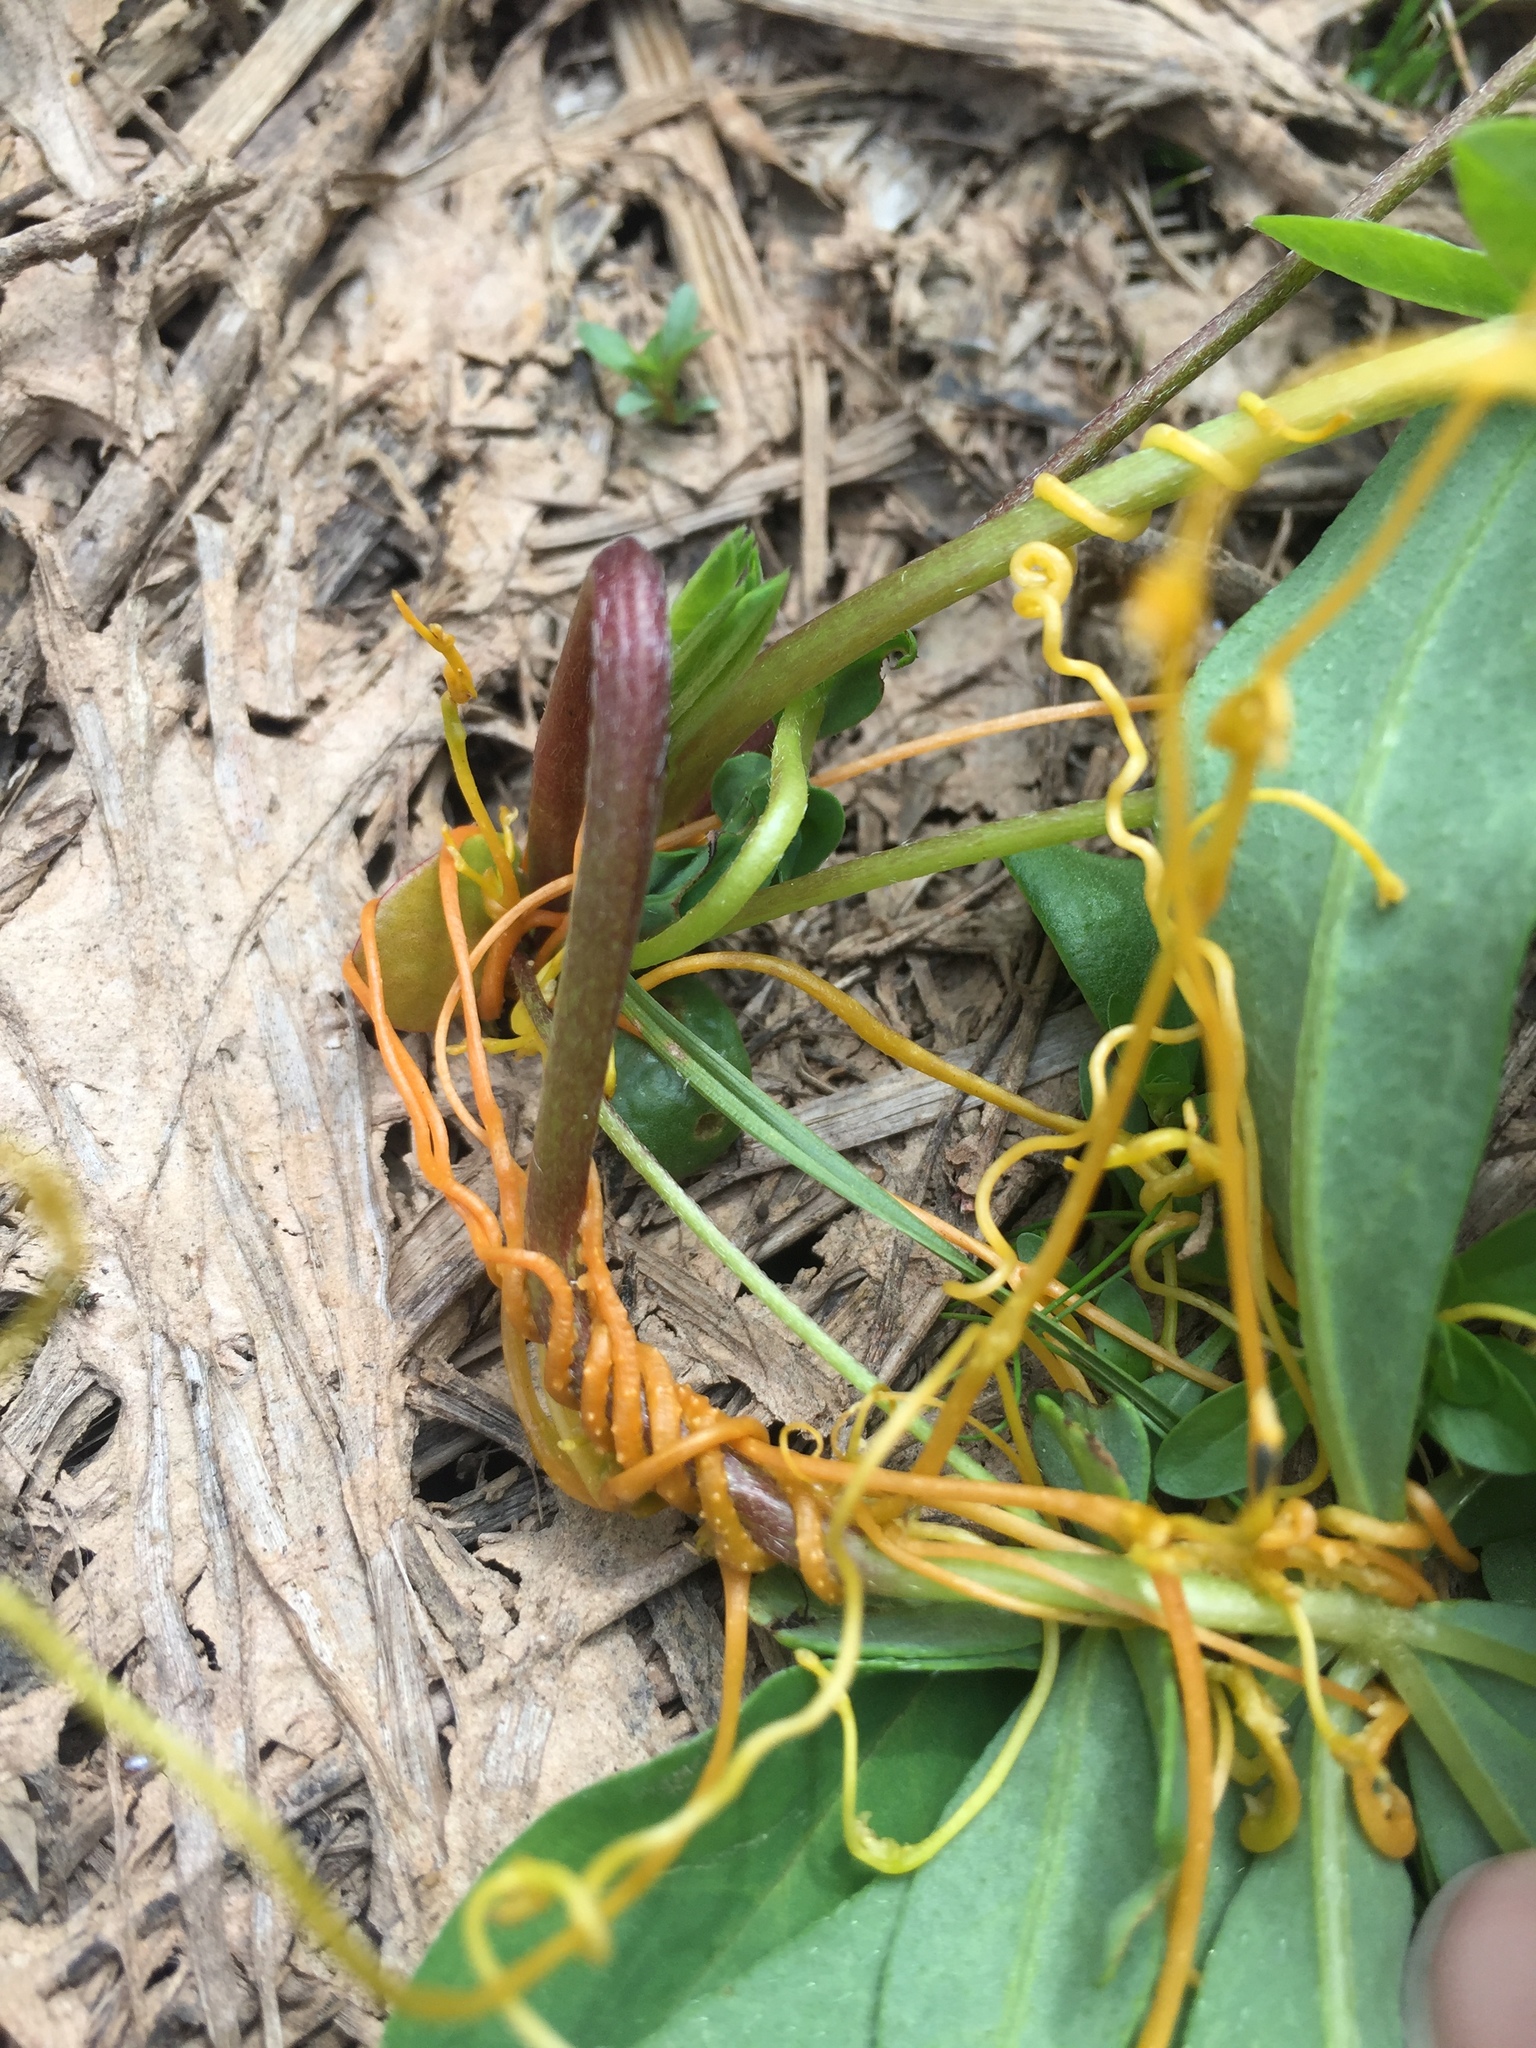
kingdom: Plantae
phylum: Tracheophyta
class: Magnoliopsida
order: Solanales
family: Convolvulaceae
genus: Cuscuta
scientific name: Cuscuta campestris
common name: Yellow dodder
